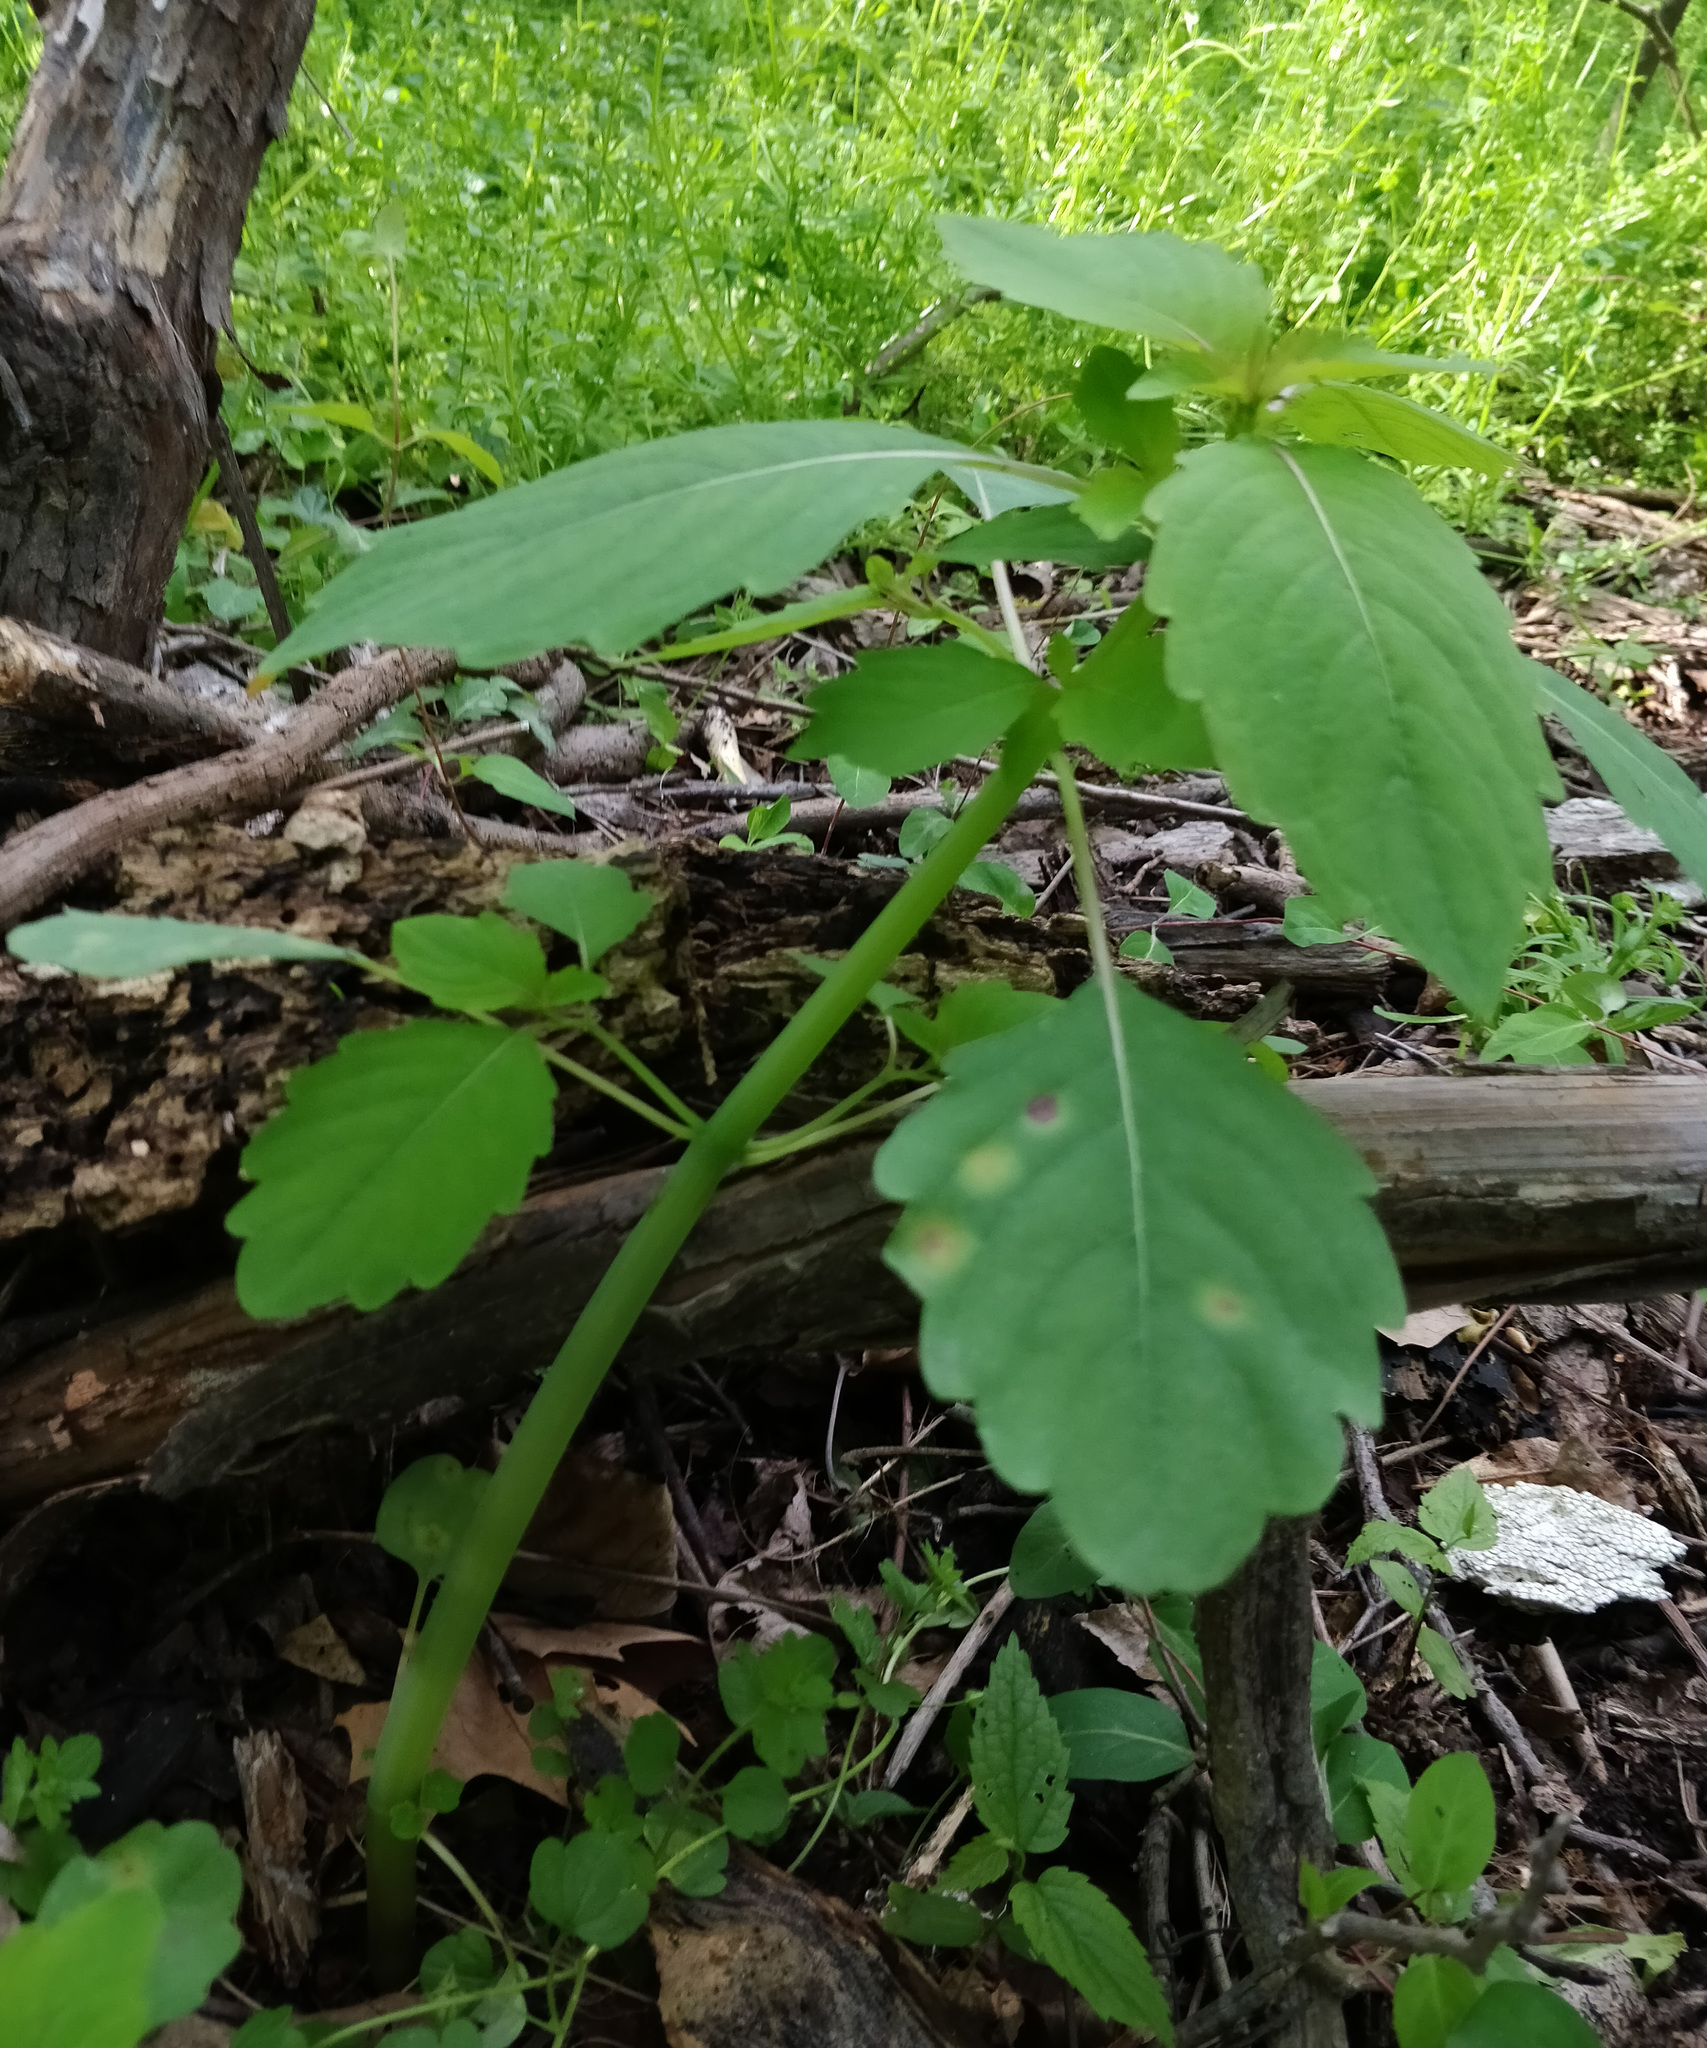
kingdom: Plantae
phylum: Tracheophyta
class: Magnoliopsida
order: Ericales
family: Balsaminaceae
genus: Impatiens
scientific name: Impatiens capensis
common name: Orange balsam
